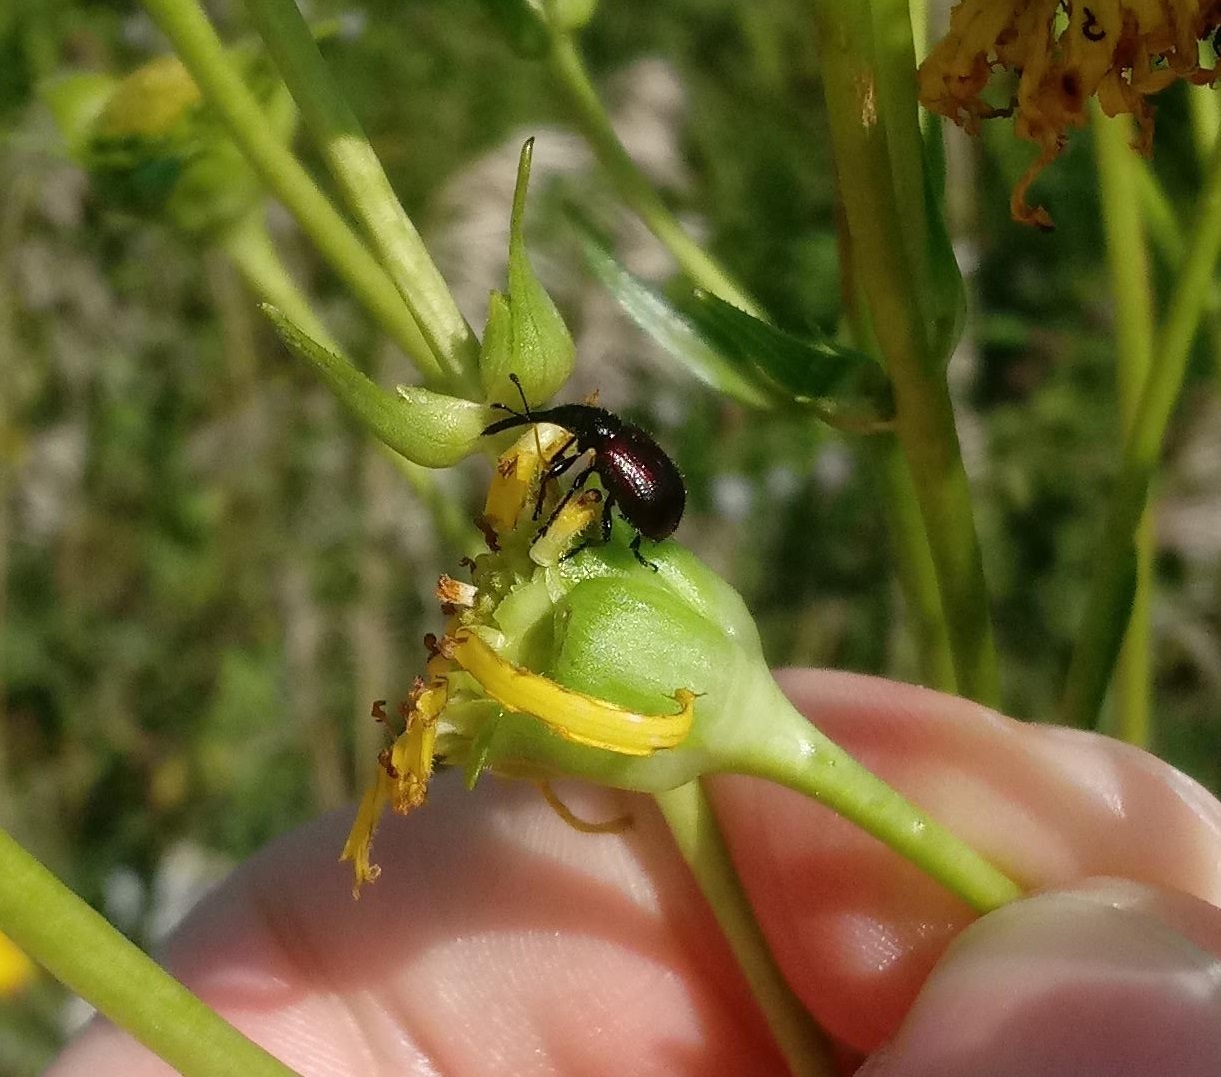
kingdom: Animalia
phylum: Arthropoda
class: Insecta
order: Coleoptera
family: Attelabidae
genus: Haplorhynchites
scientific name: Haplorhynchites aeneus
